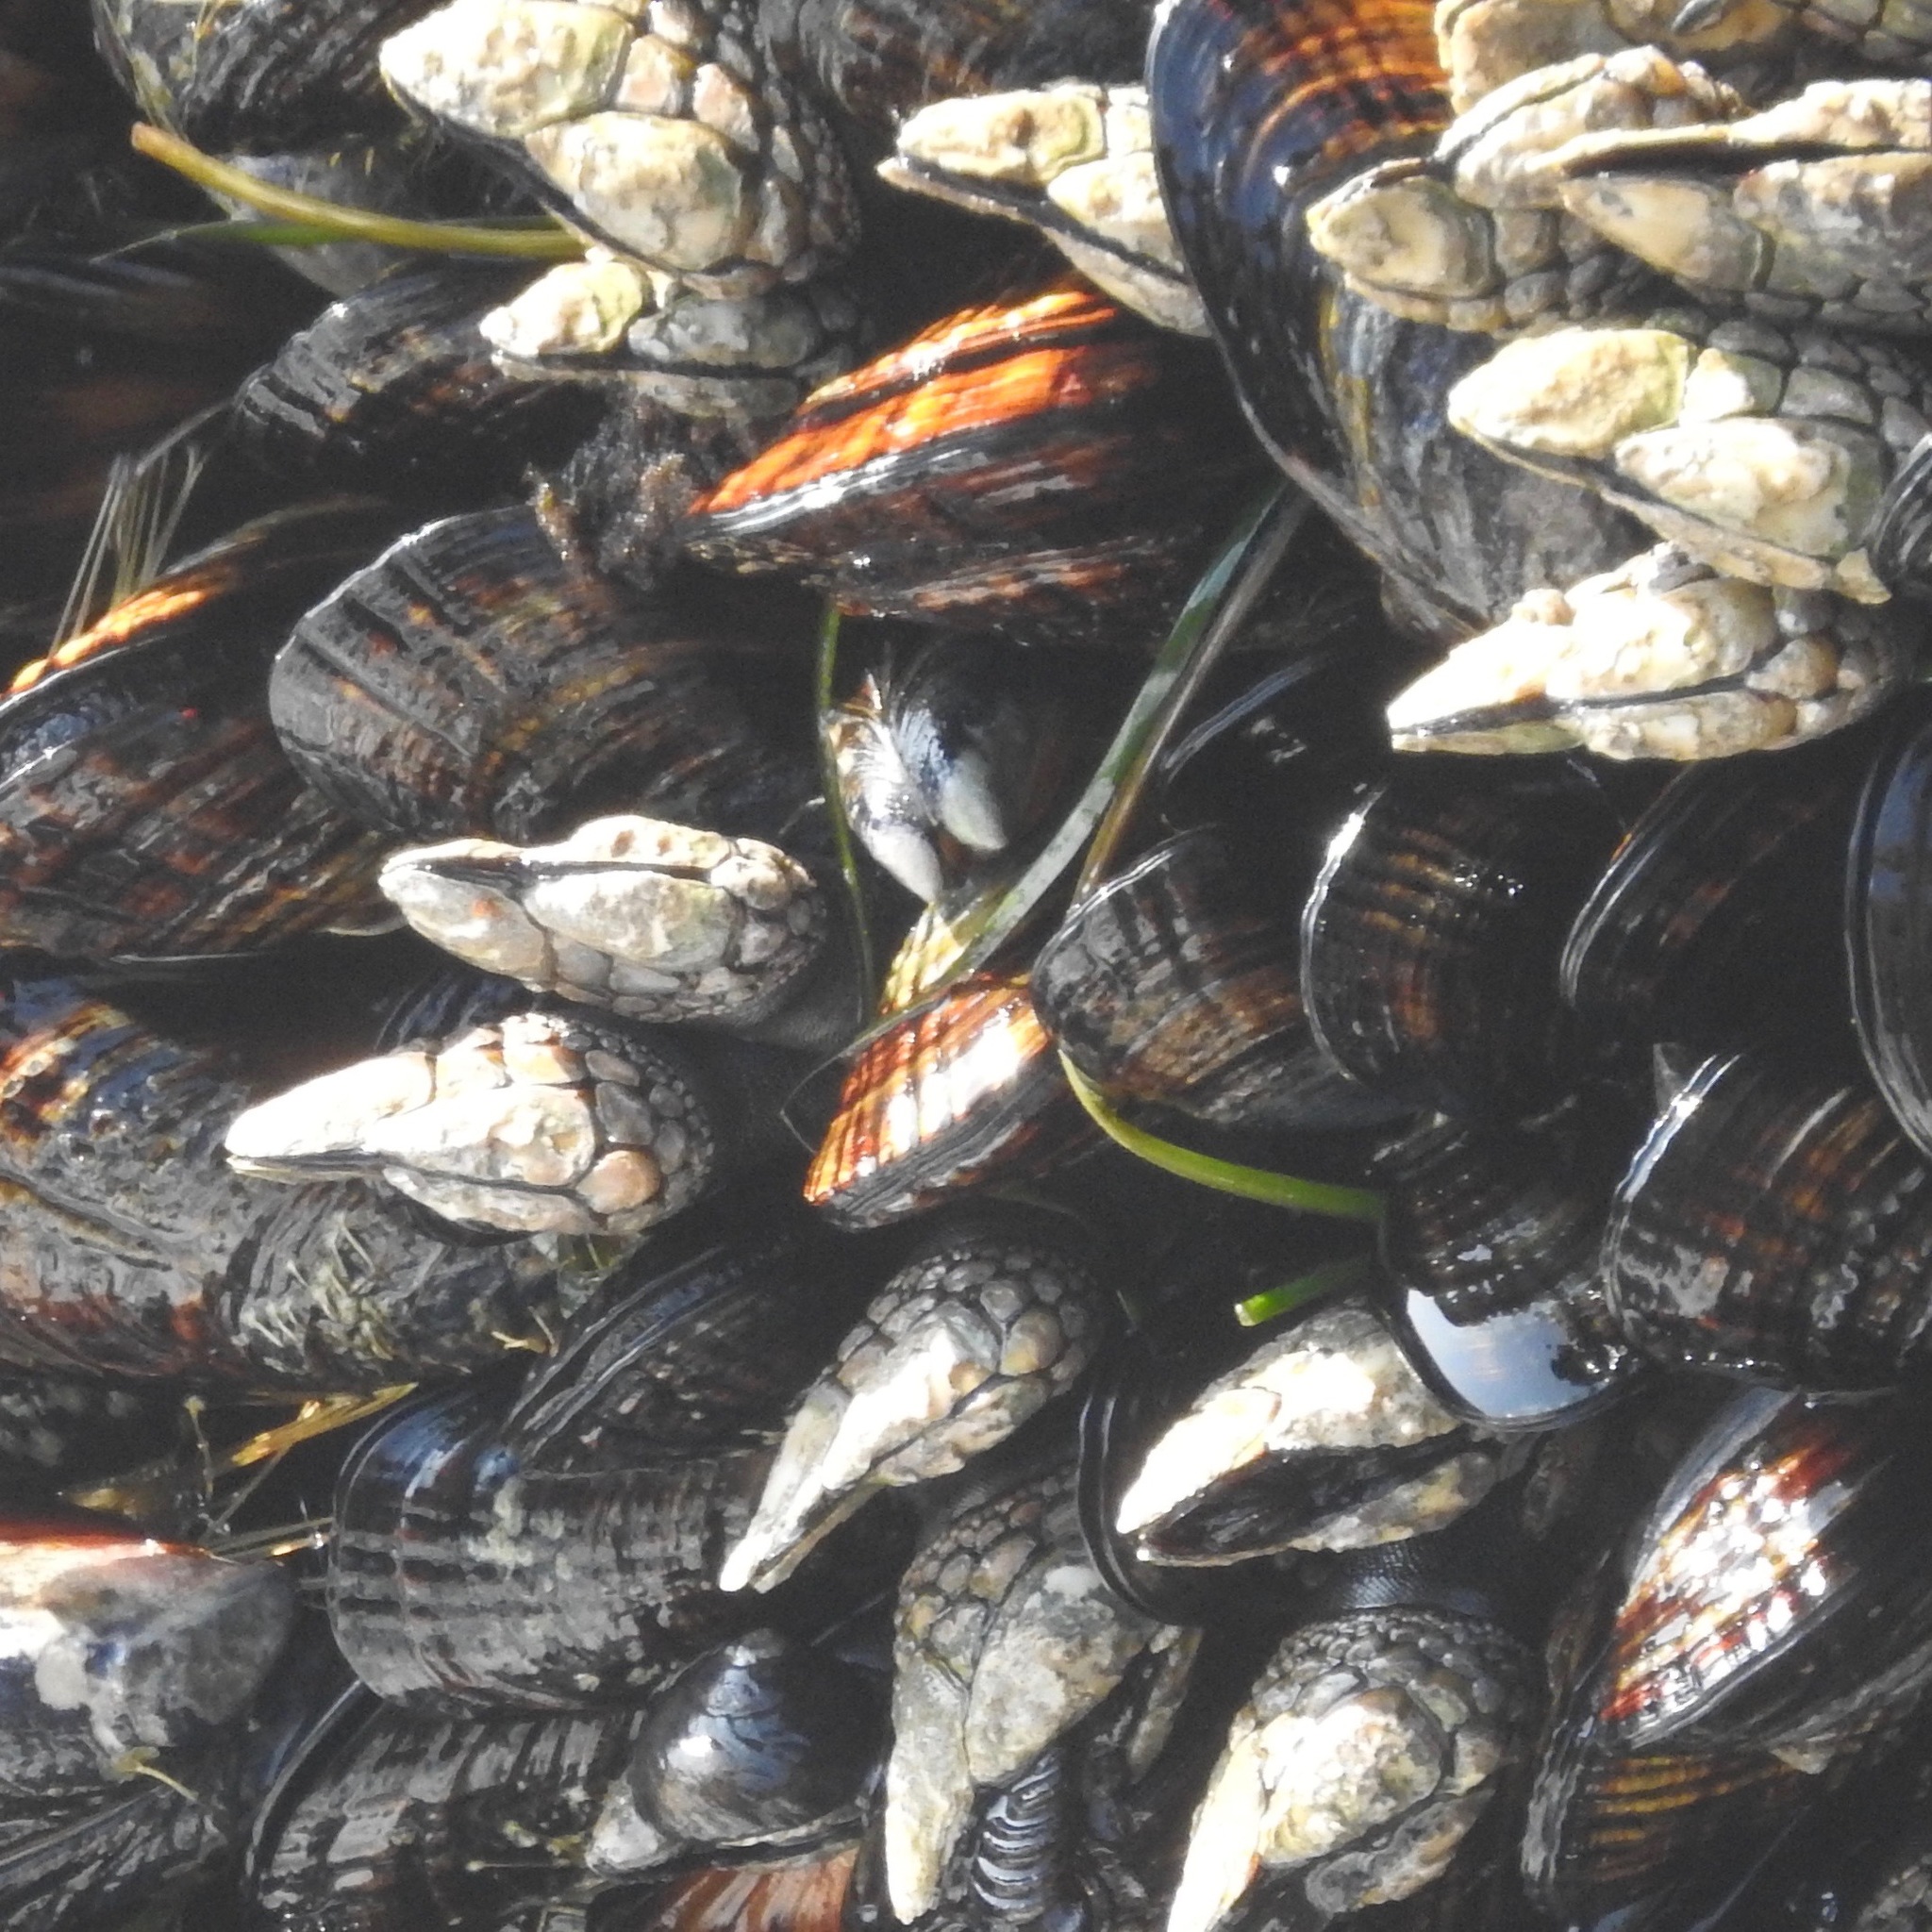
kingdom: Animalia
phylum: Arthropoda
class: Maxillopoda
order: Pedunculata
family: Pollicipedidae
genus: Pollicipes
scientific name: Pollicipes polymerus
